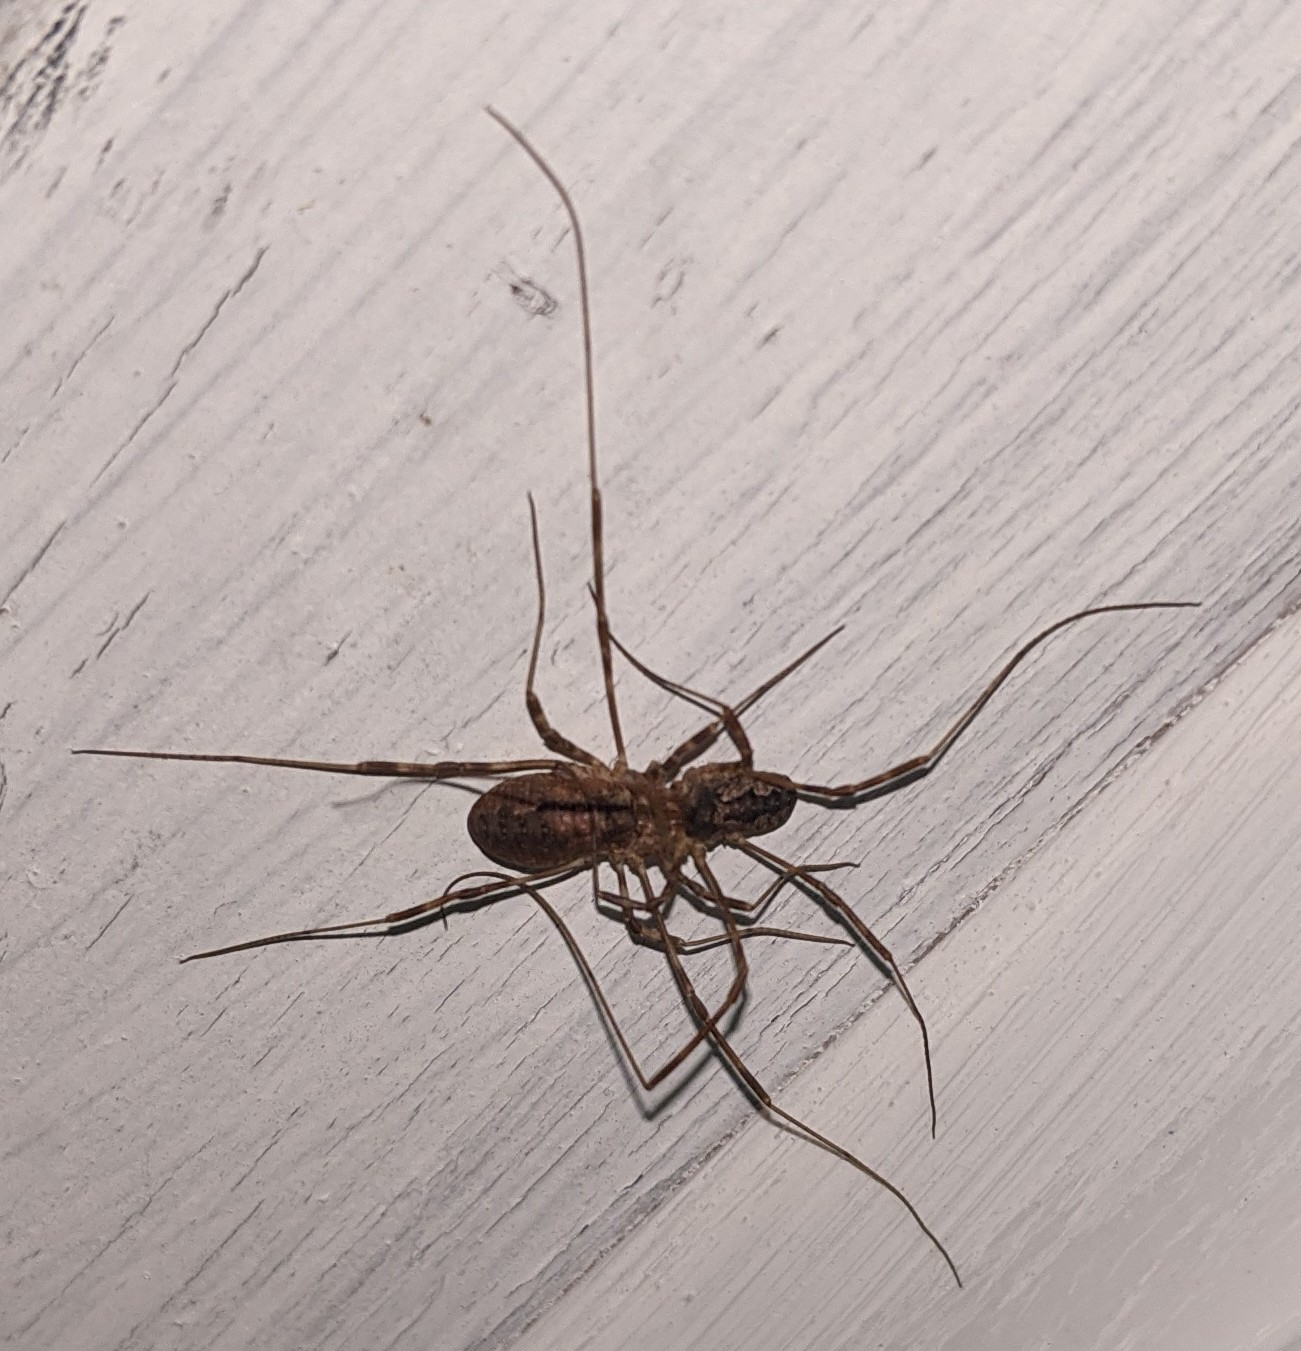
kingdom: Animalia
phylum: Arthropoda
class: Arachnida
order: Opiliones
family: Phalangiidae
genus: Odiellus
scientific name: Odiellus pictus
